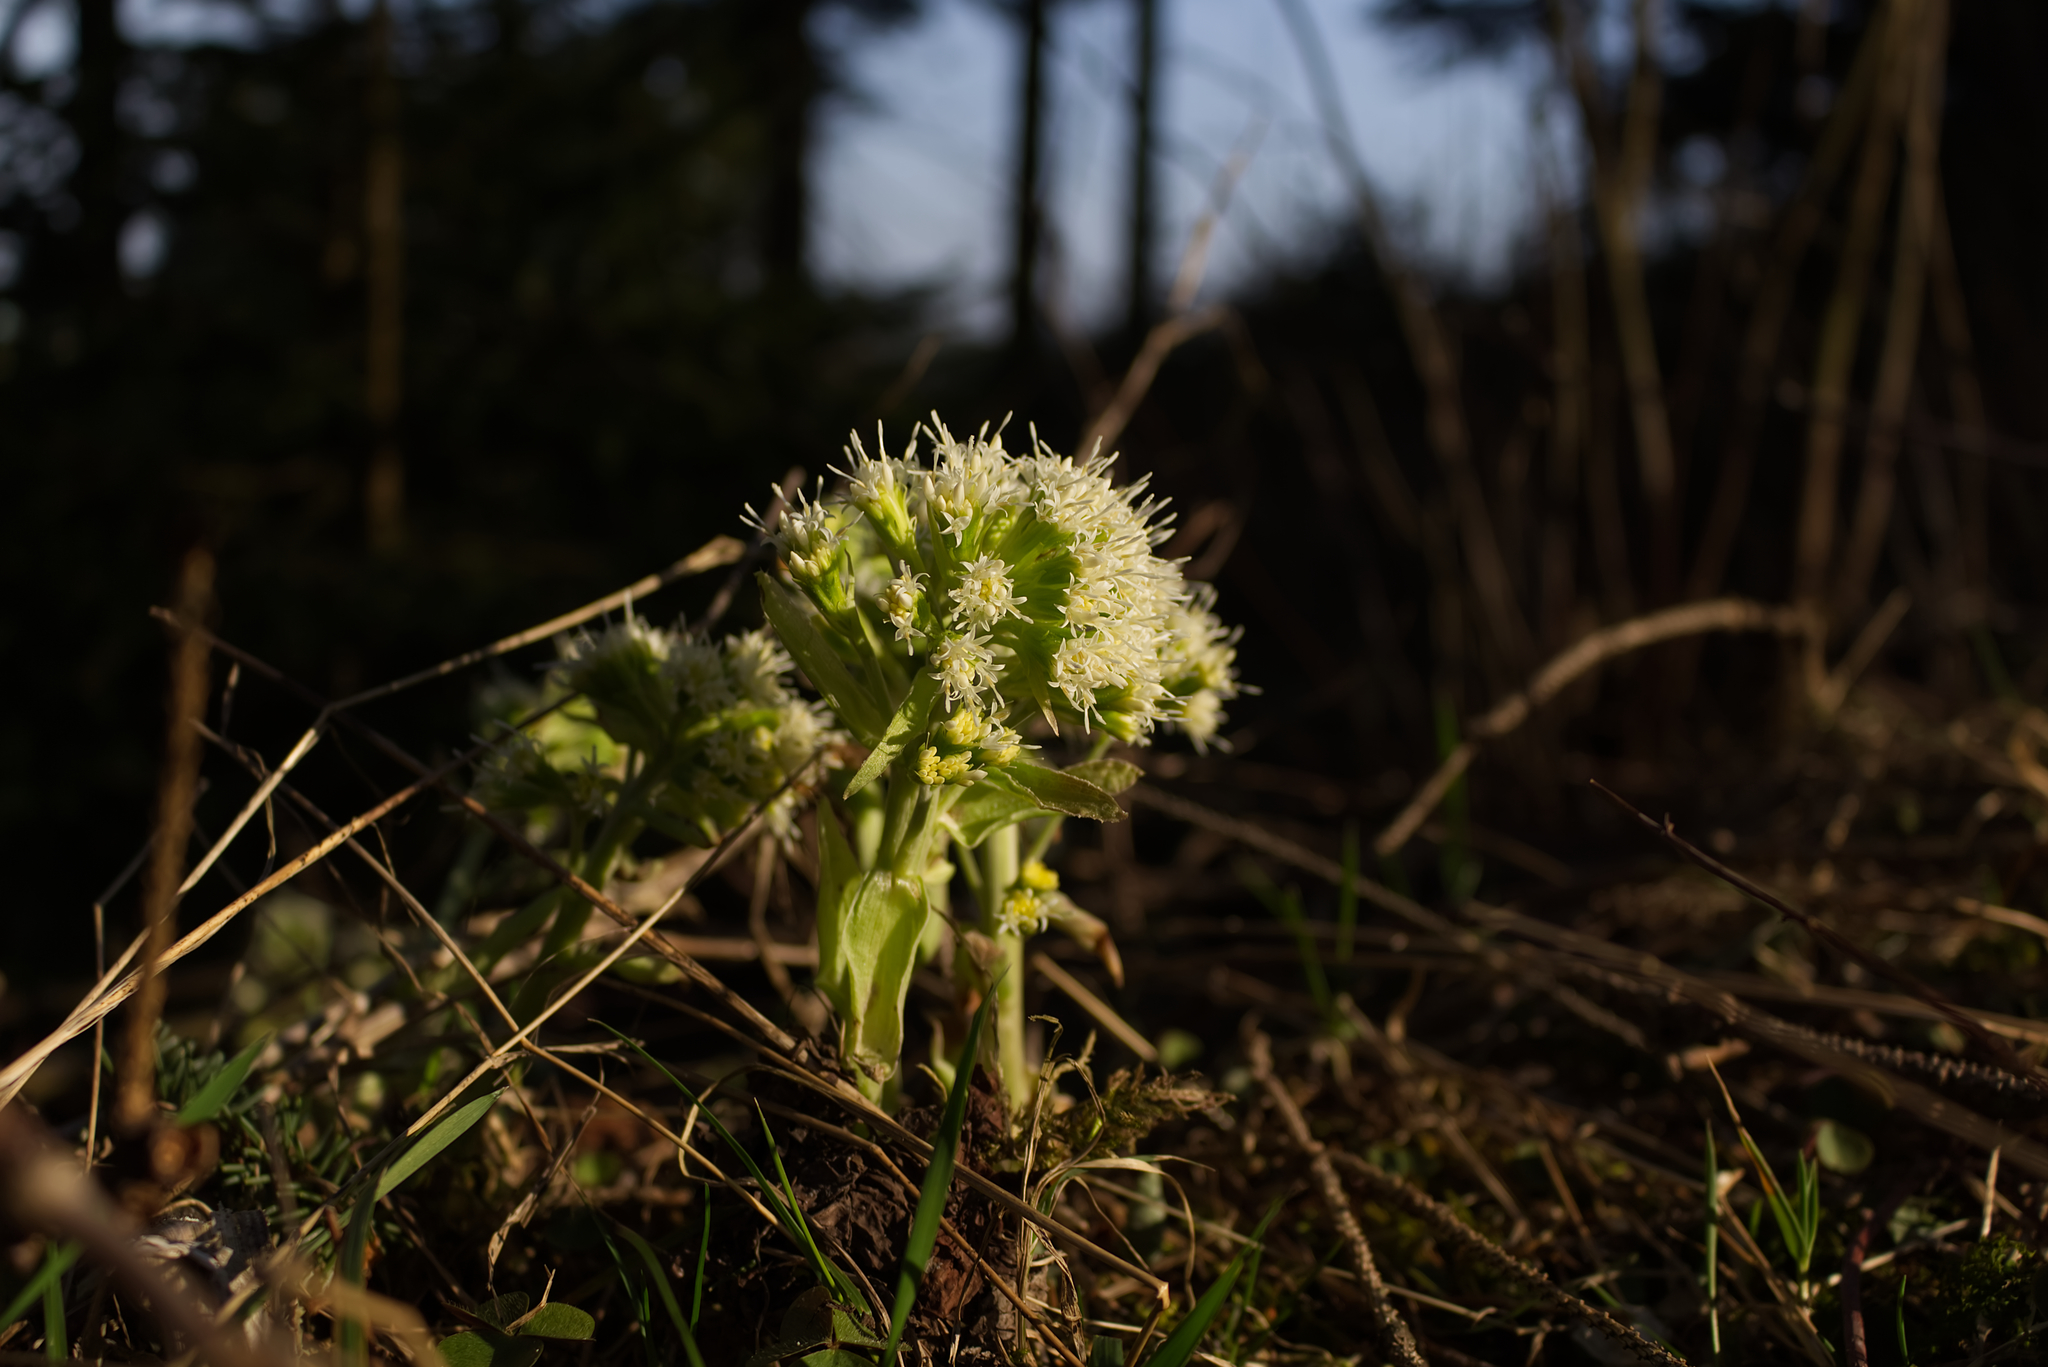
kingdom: Plantae
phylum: Tracheophyta
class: Magnoliopsida
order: Asterales
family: Asteraceae
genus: Petasites
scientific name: Petasites albus
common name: White butterbur
